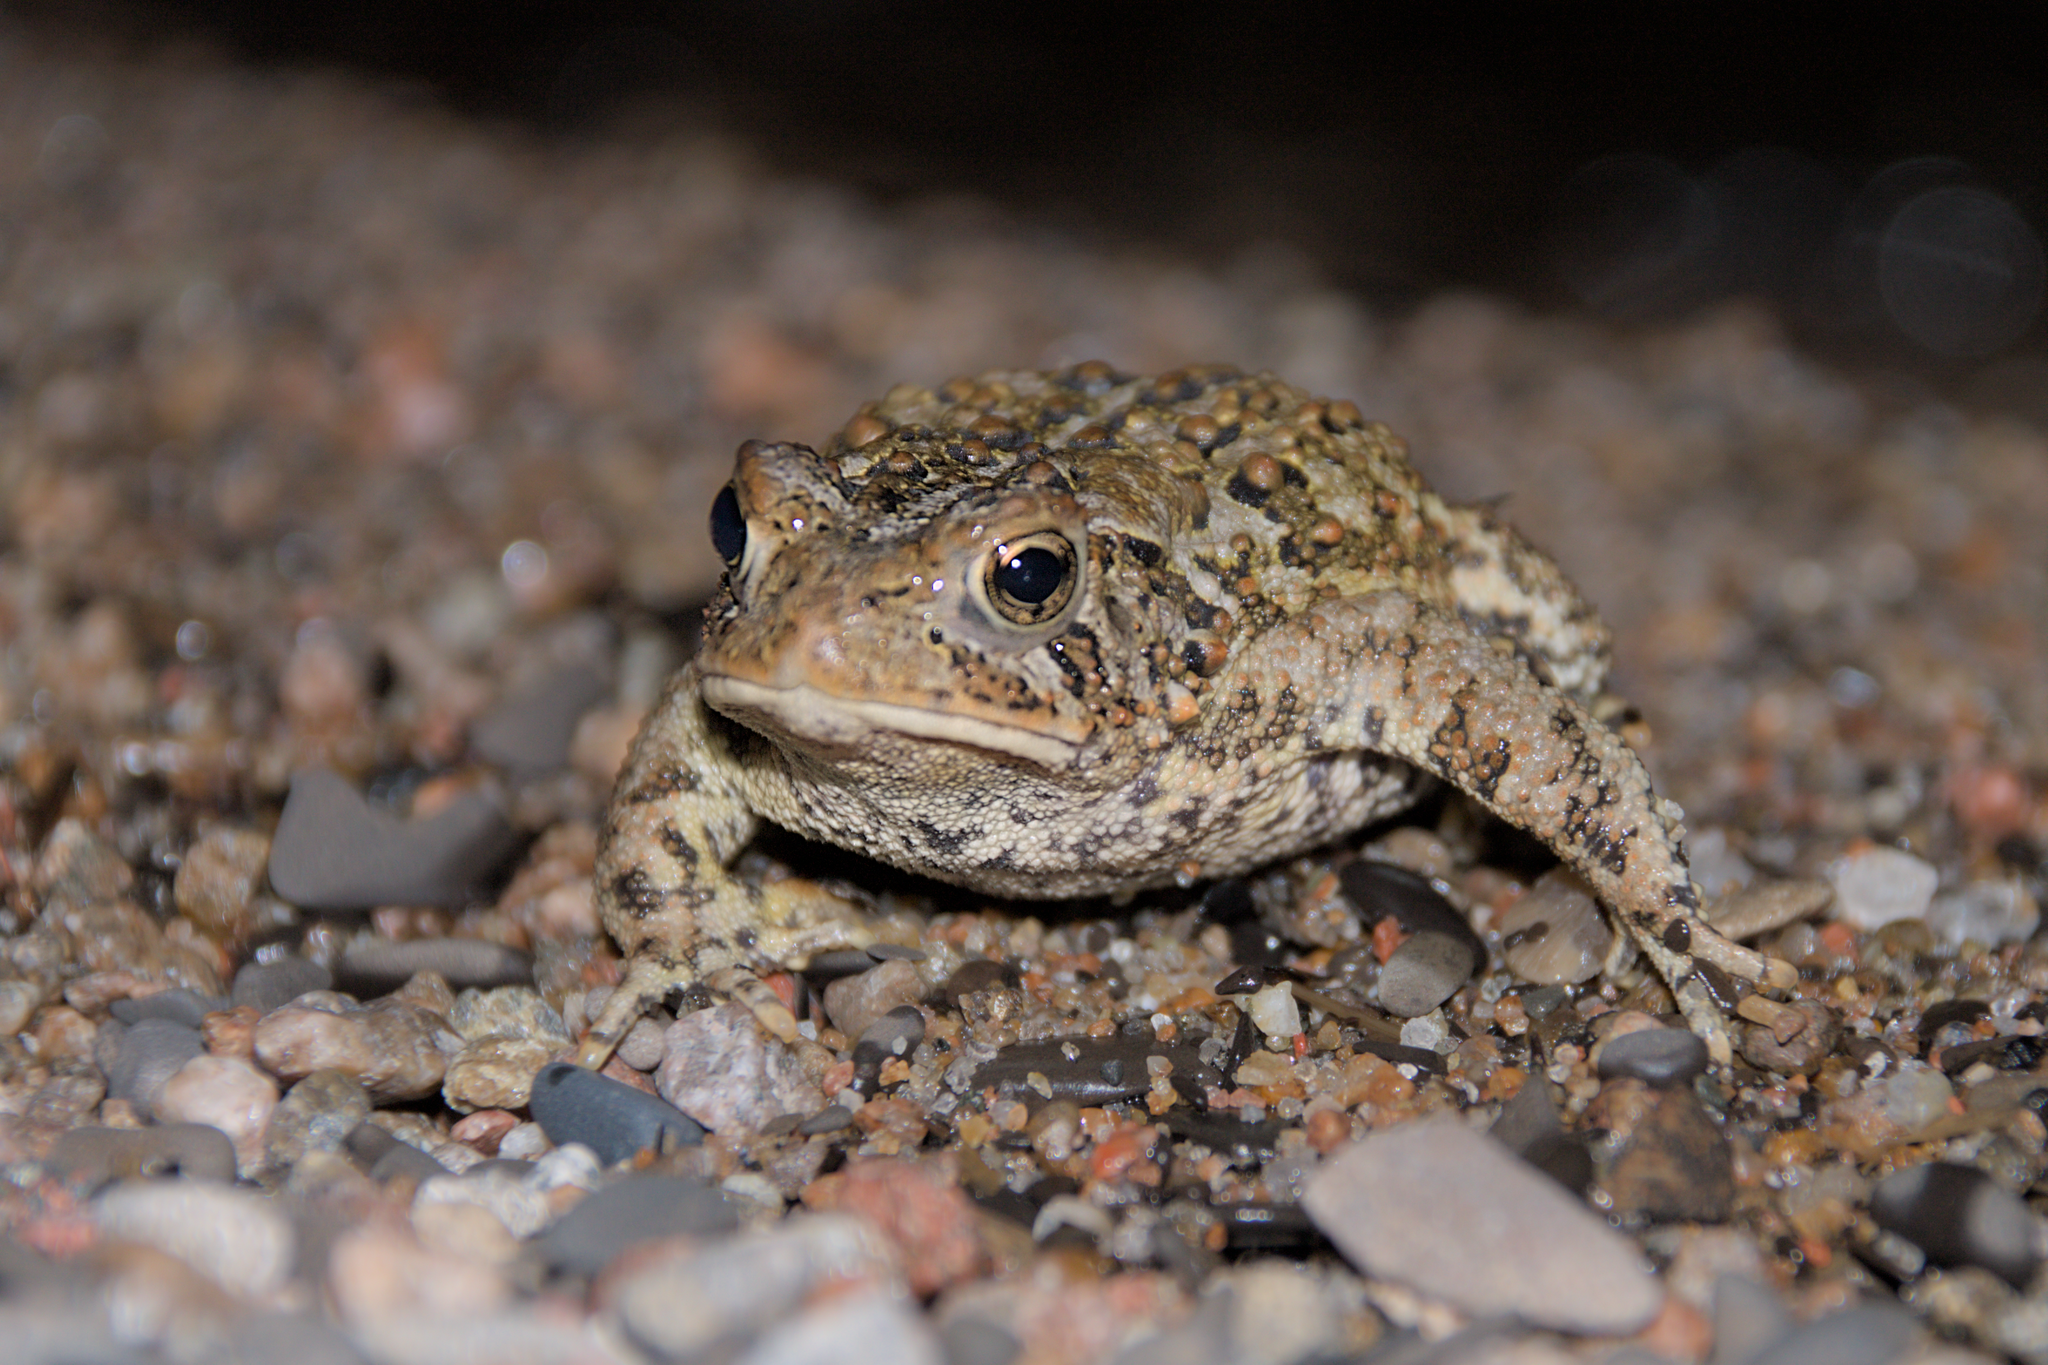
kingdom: Animalia
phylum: Chordata
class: Amphibia
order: Anura
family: Bufonidae
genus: Anaxyrus
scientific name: Anaxyrus americanus
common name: American toad
